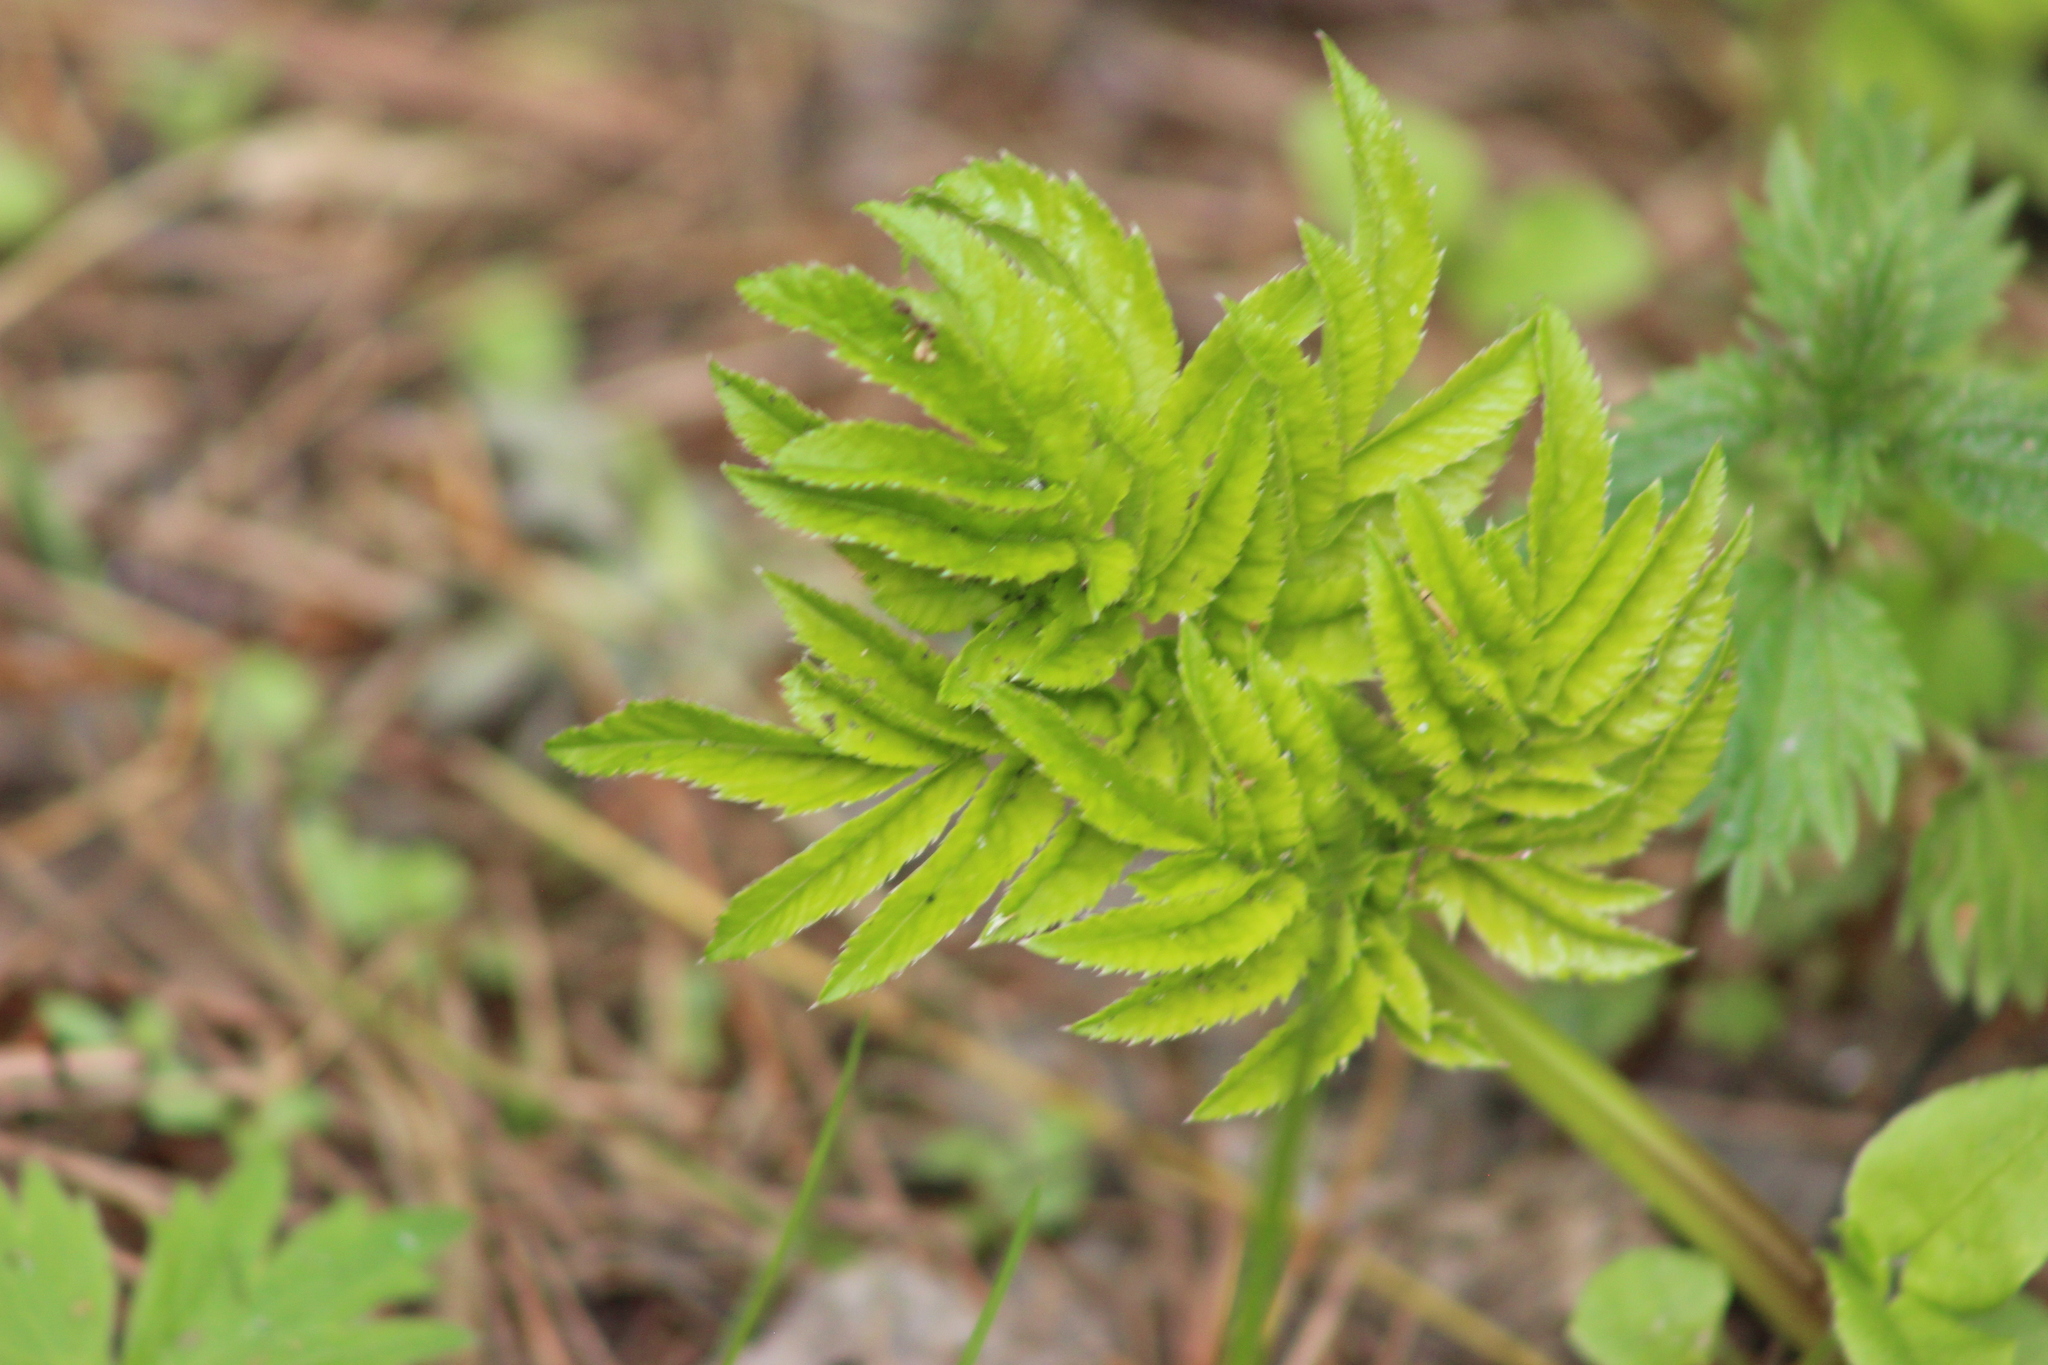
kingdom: Plantae
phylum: Tracheophyta
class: Magnoliopsida
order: Apiales
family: Apiaceae
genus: Angelica
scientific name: Angelica sylvestris
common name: Wild angelica
